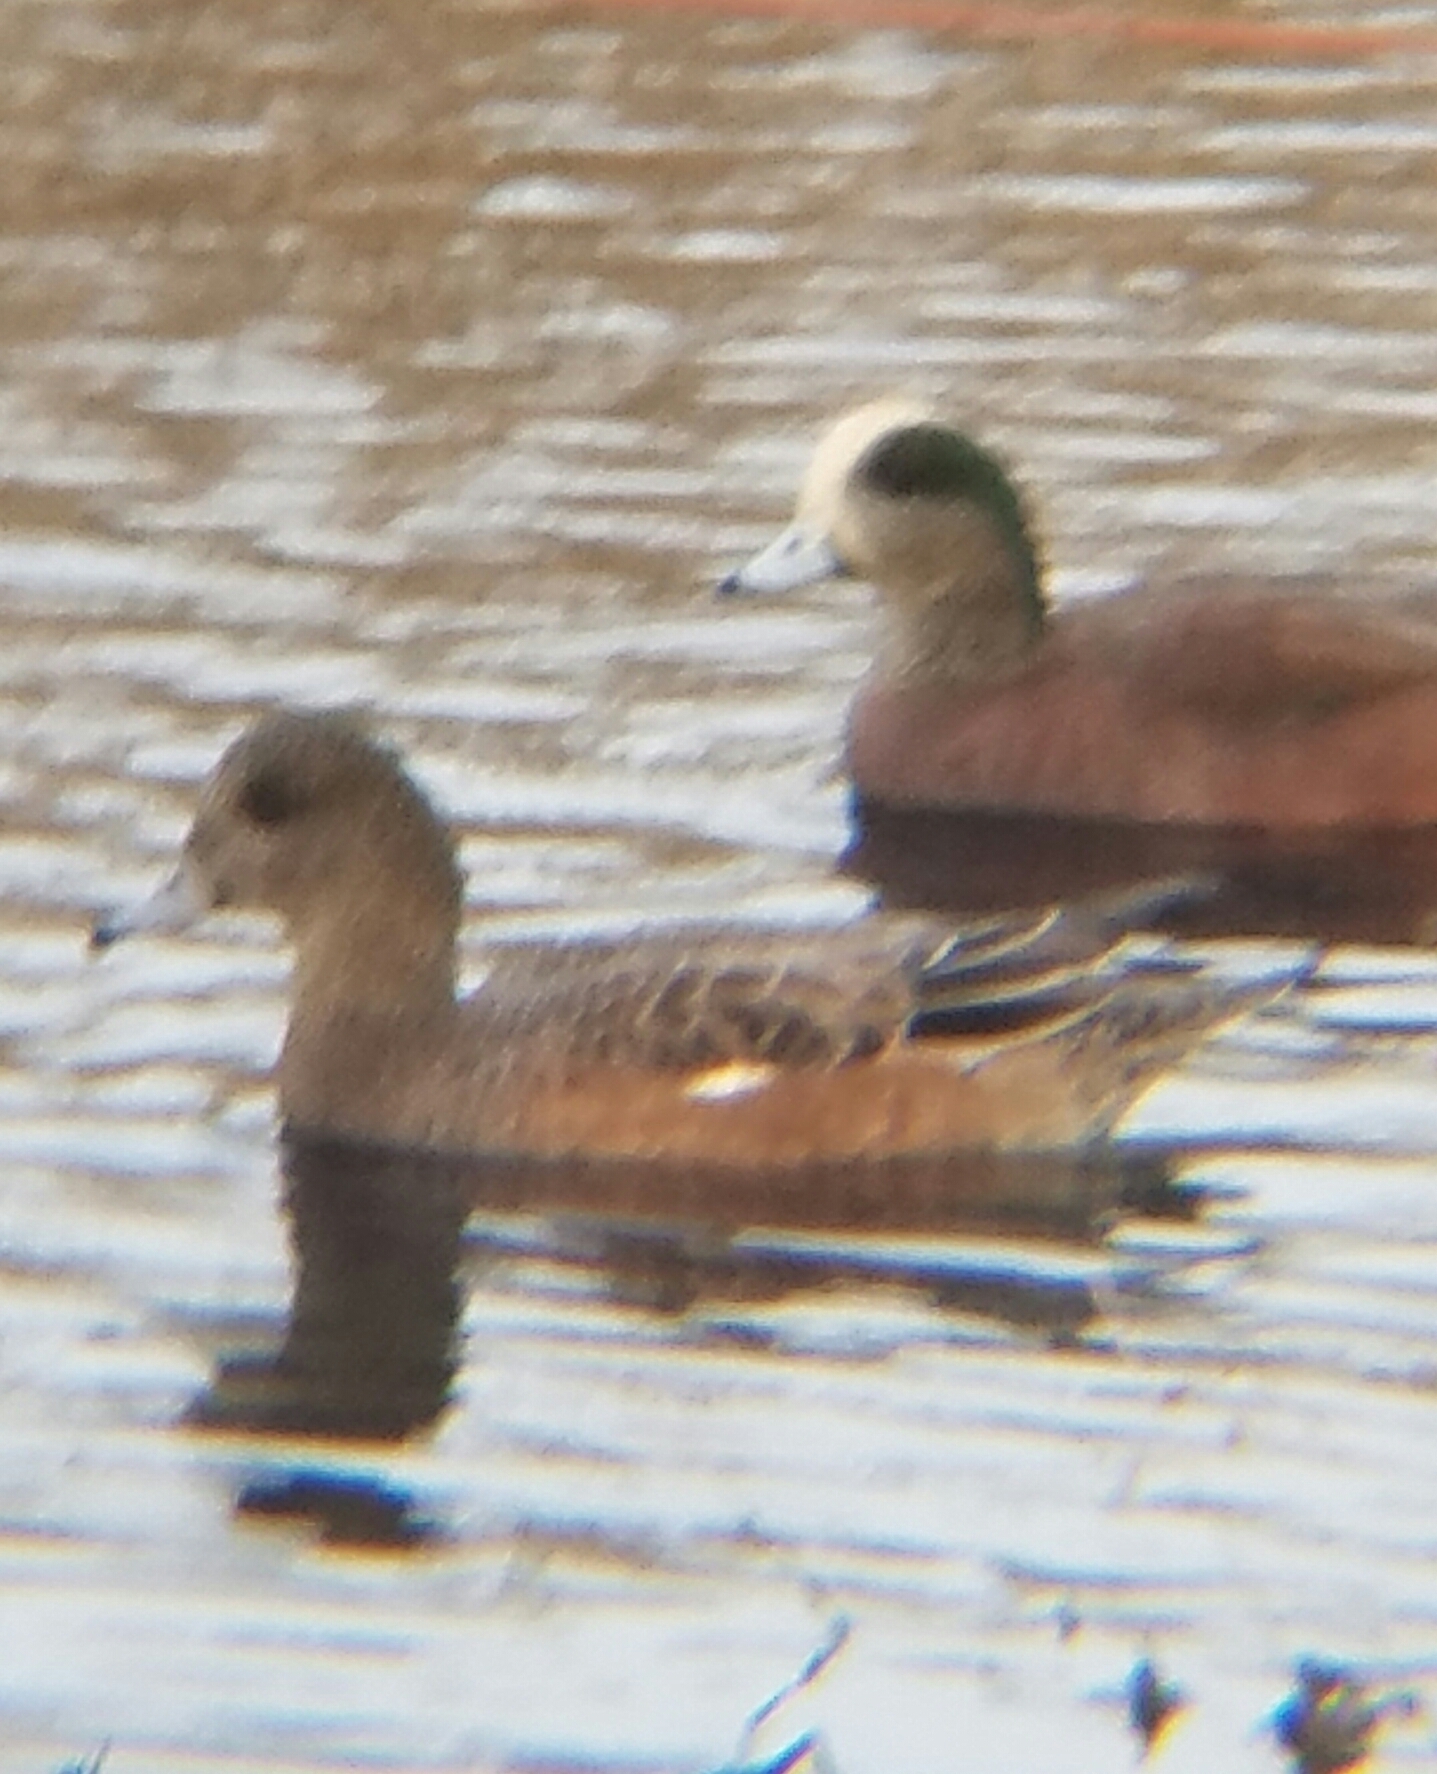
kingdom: Animalia
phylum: Chordata
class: Aves
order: Anseriformes
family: Anatidae
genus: Mareca
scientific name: Mareca americana
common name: American wigeon
